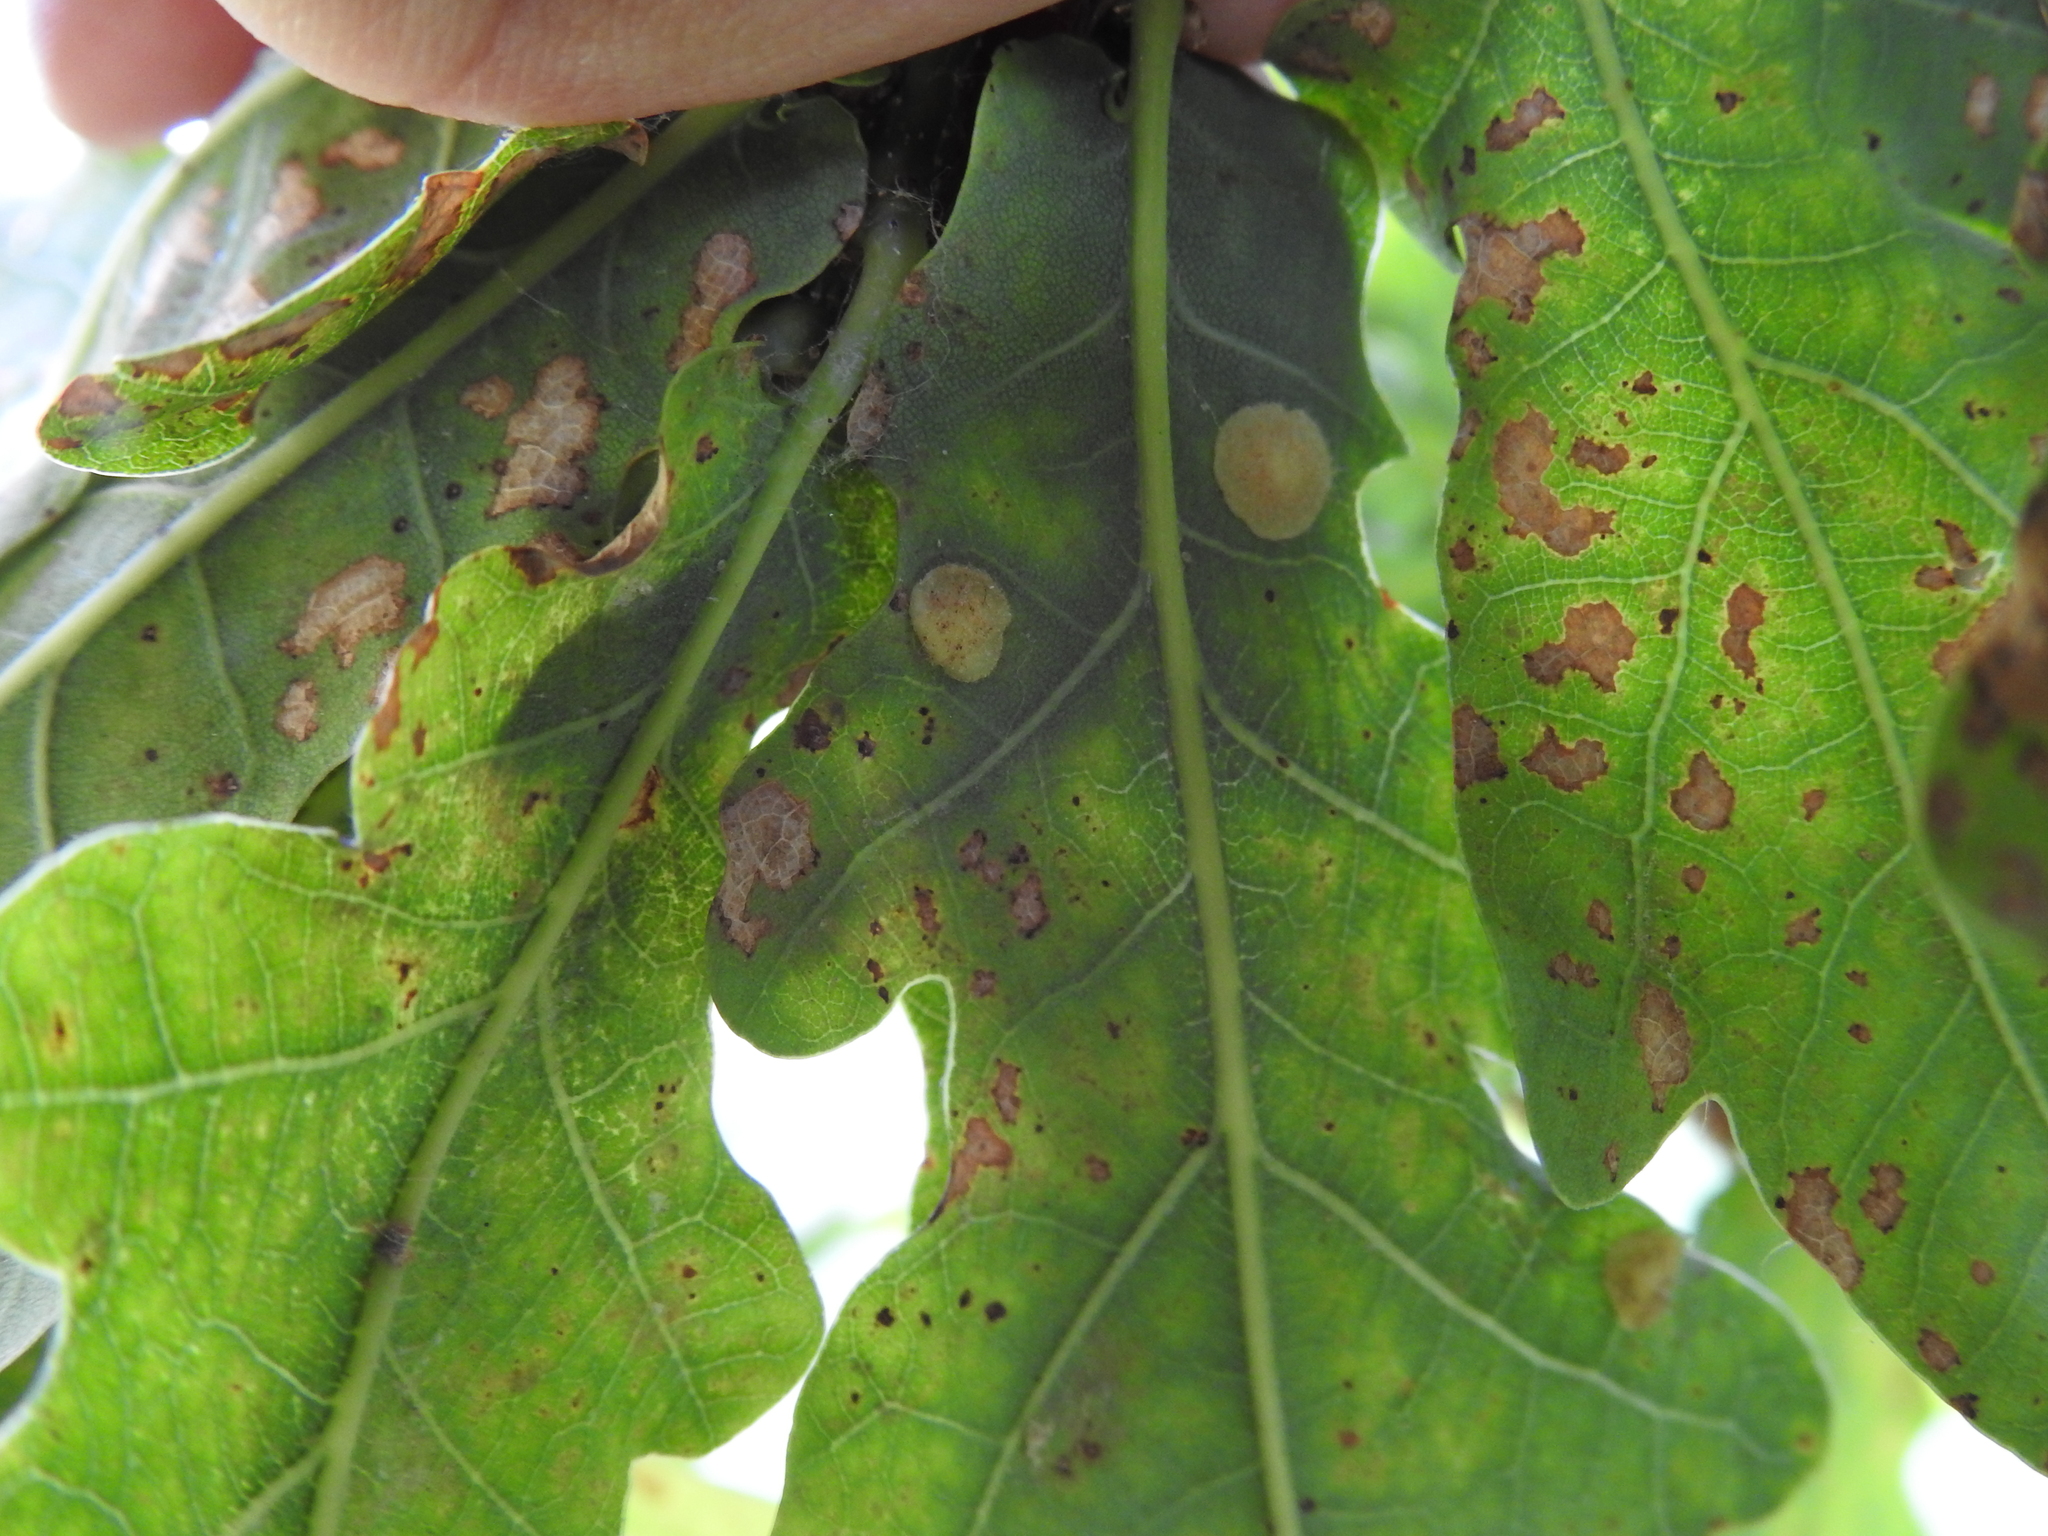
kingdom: Animalia
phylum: Arthropoda
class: Insecta
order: Hymenoptera
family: Cynipidae
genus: Neuroterus
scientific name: Neuroterus quercusbaccarum
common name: Common spangle gall
